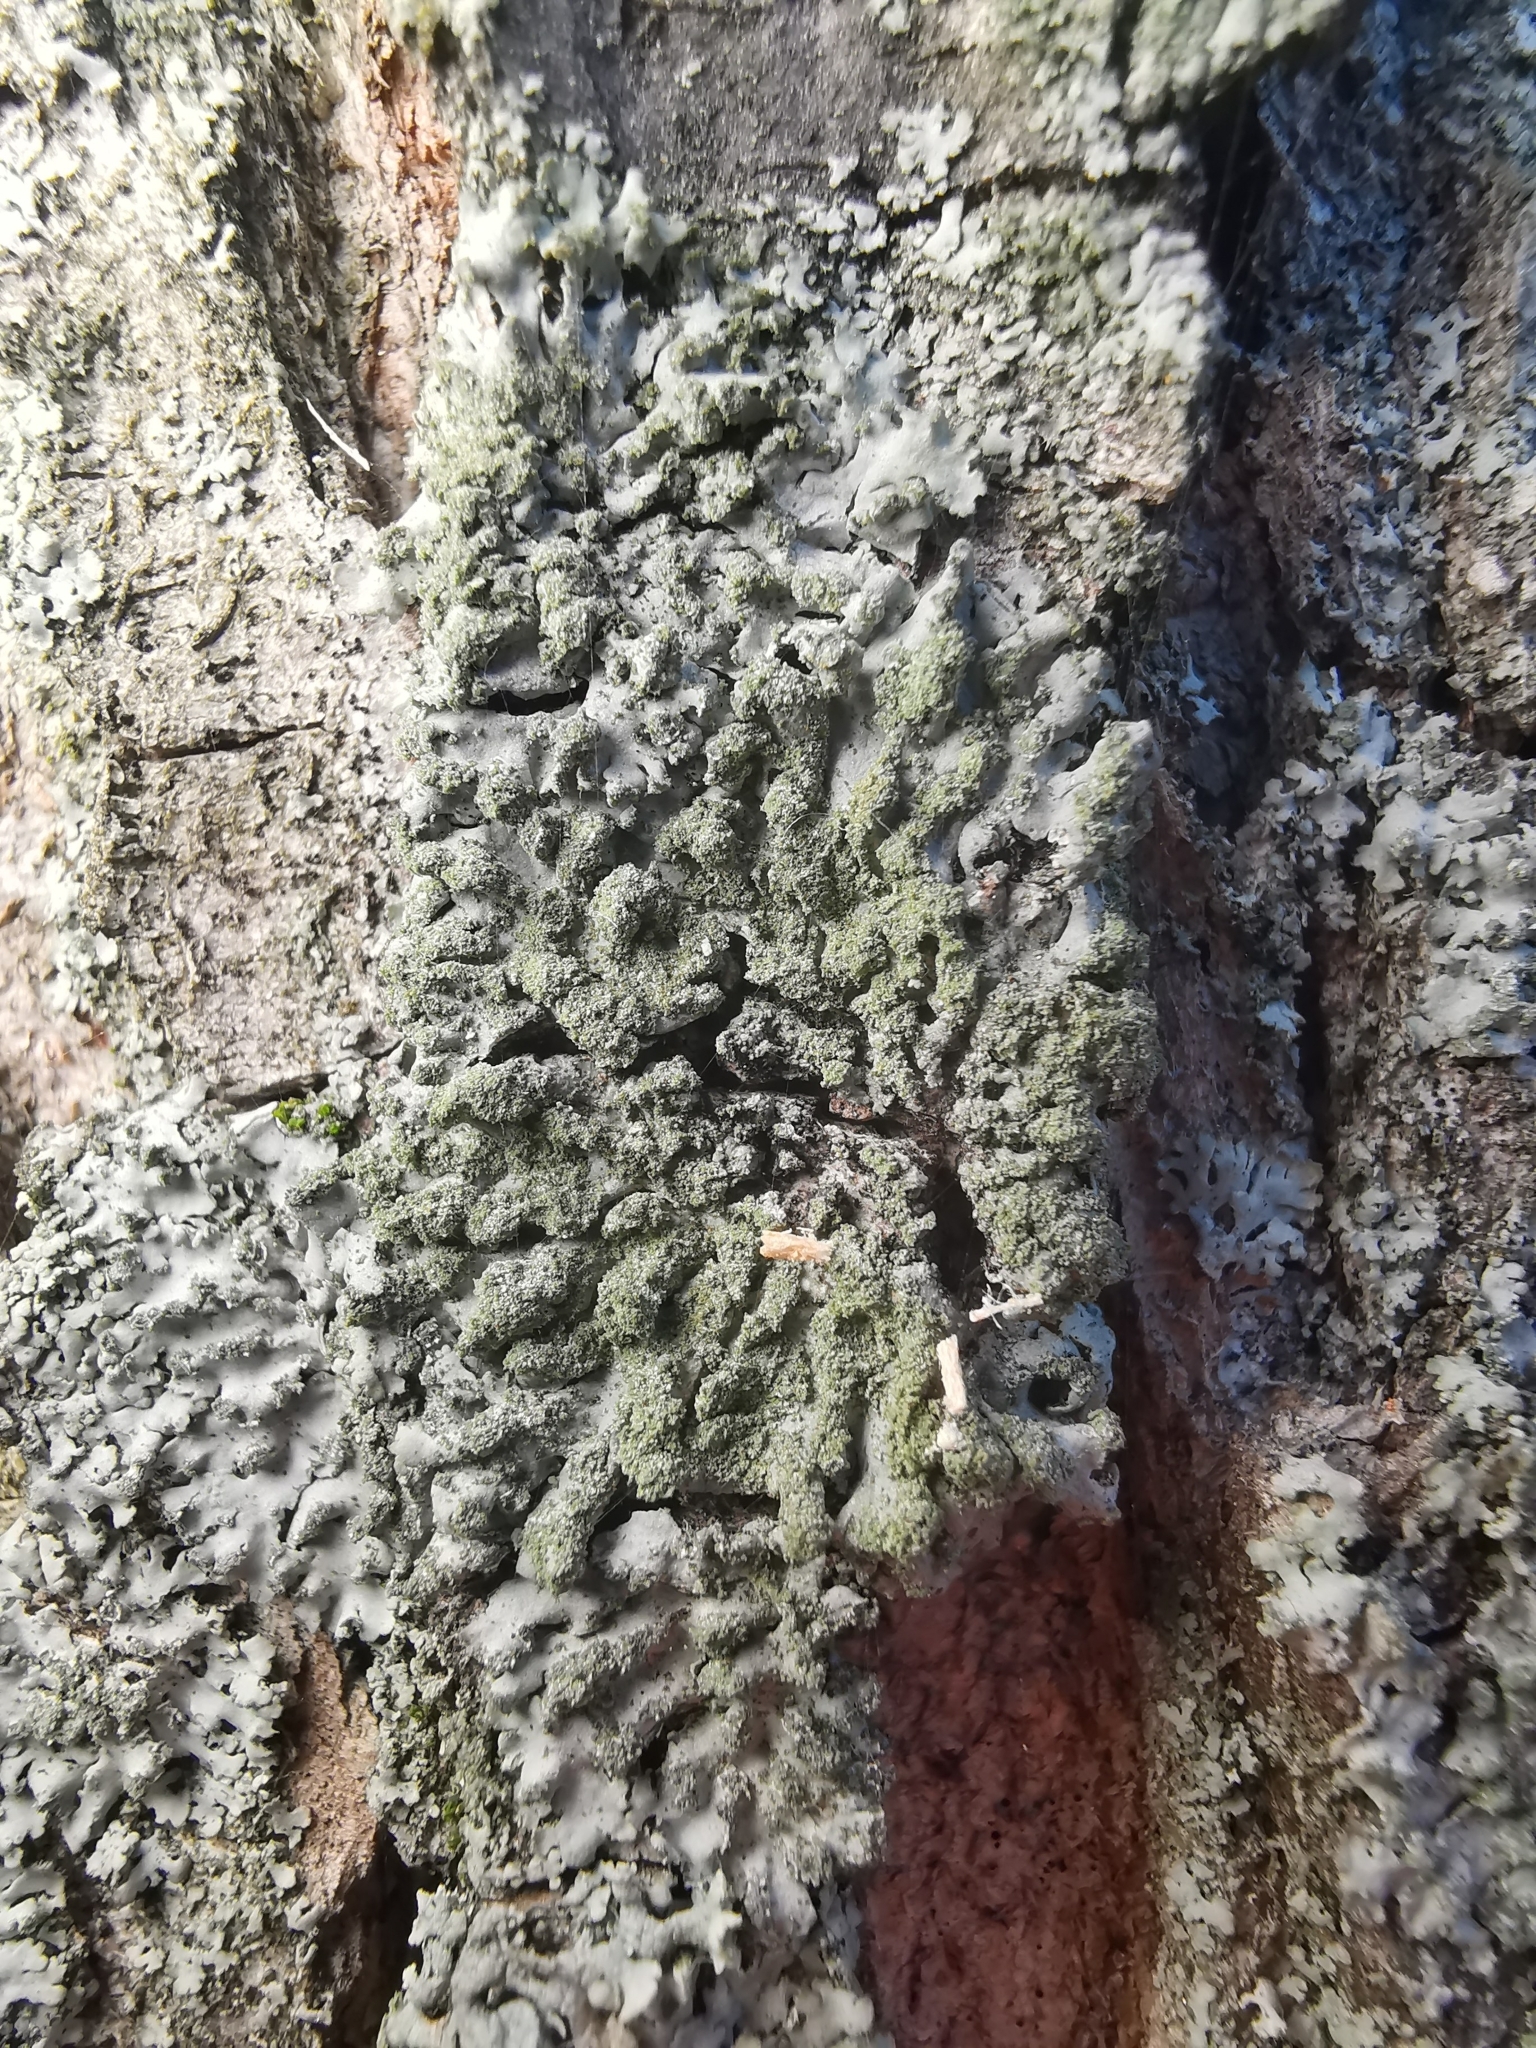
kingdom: Fungi
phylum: Ascomycota
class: Lecanoromycetes
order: Caliciales
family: Physciaceae
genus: Phaeophyscia
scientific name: Phaeophyscia orbicularis
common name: Mealy shadow lichen
